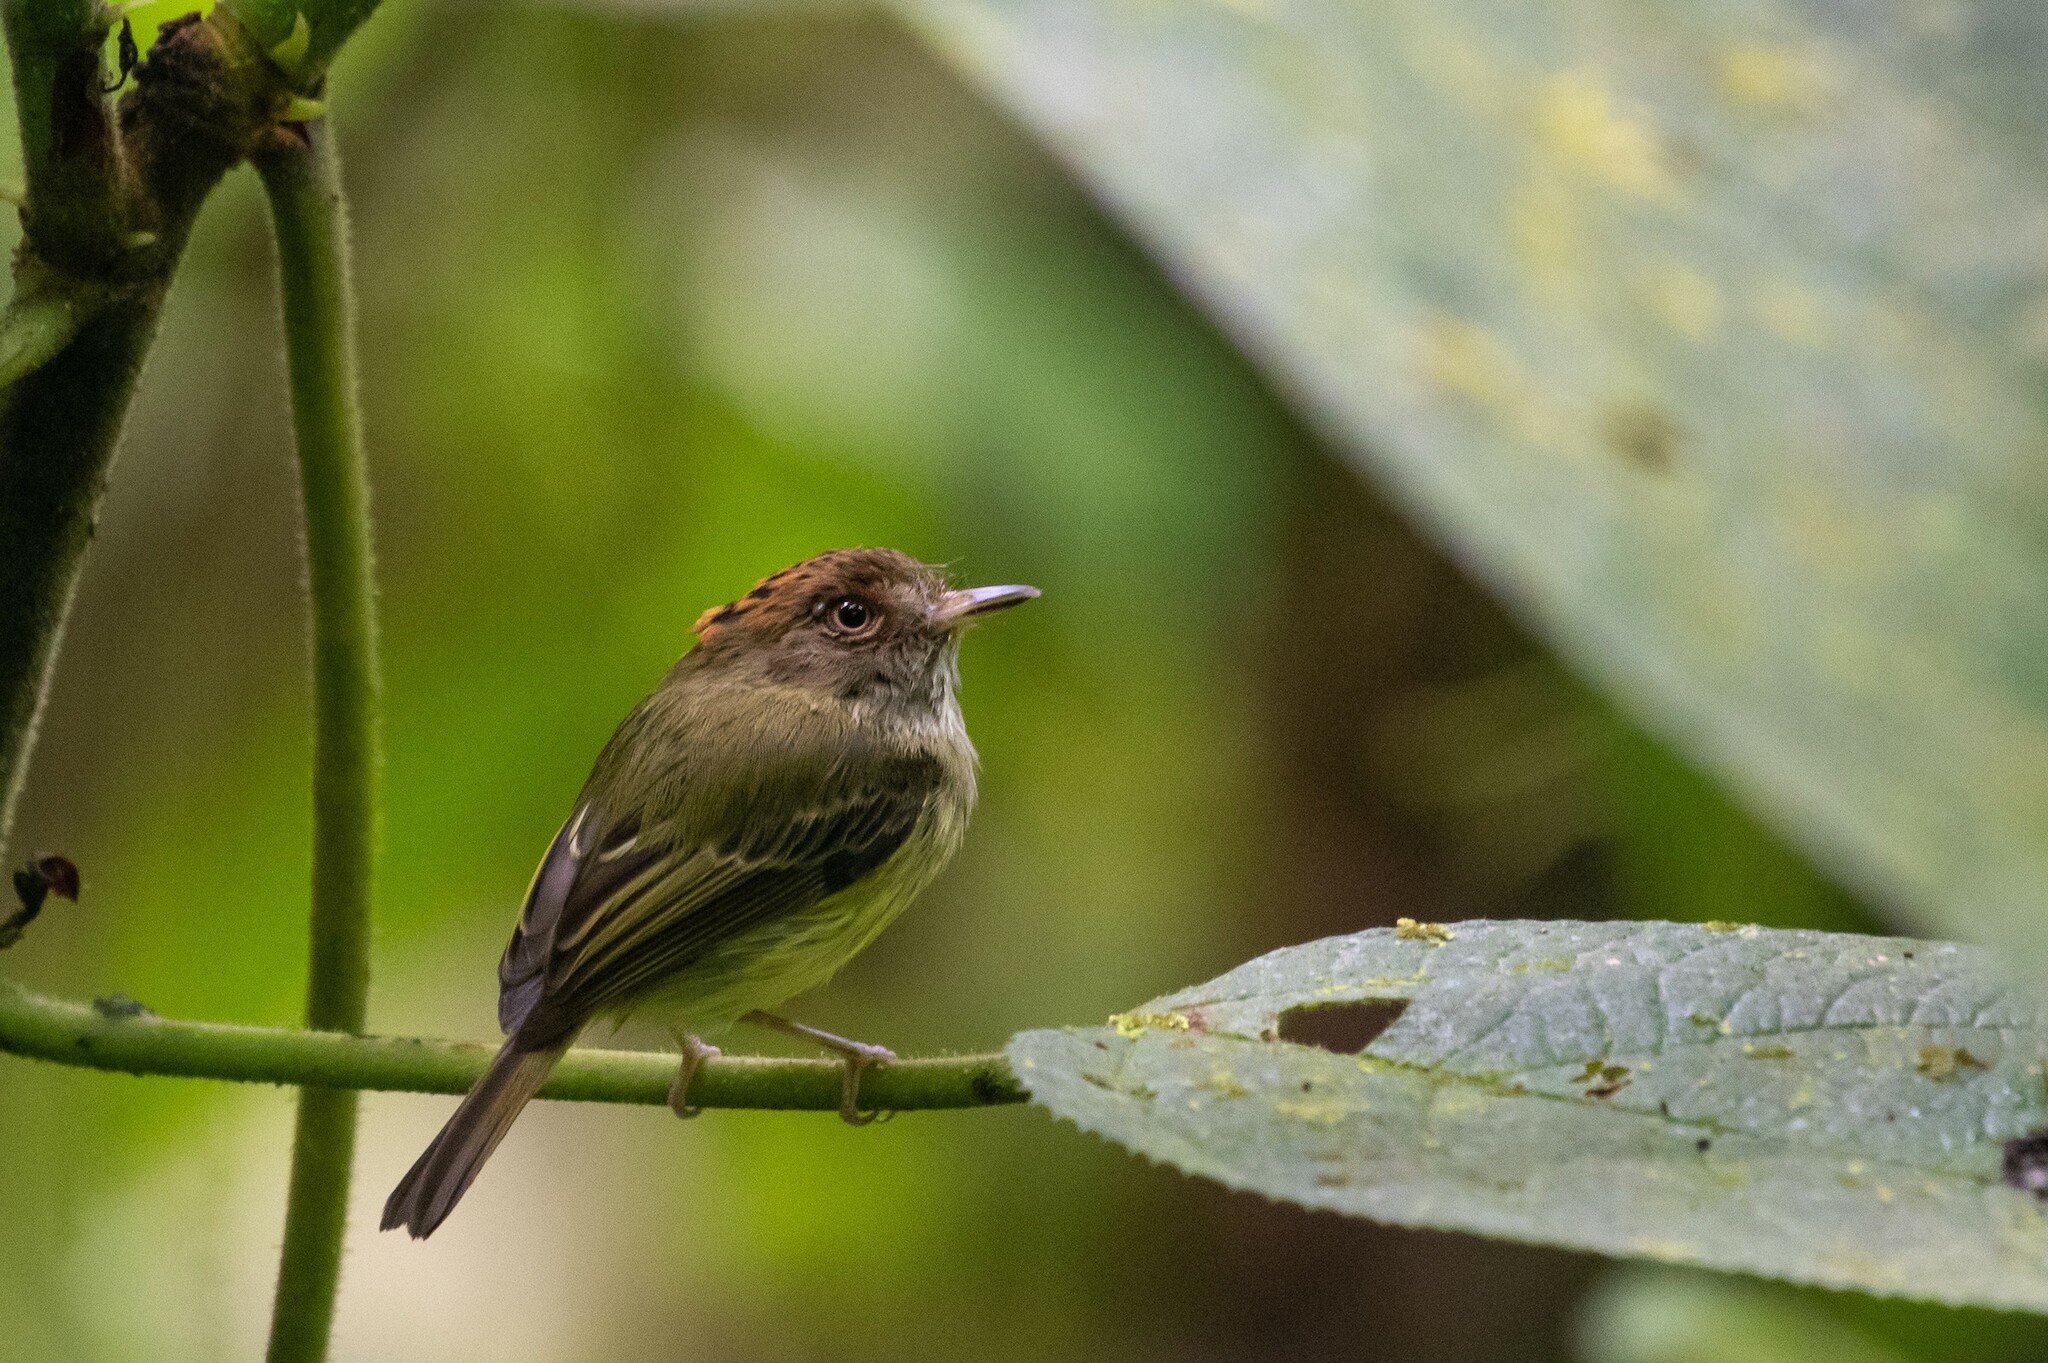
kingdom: Animalia
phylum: Chordata
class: Aves
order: Passeriformes
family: Tyrannidae
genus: Lophotriccus
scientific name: Lophotriccus pileatus
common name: Scale-crested pygmy-tyrant
